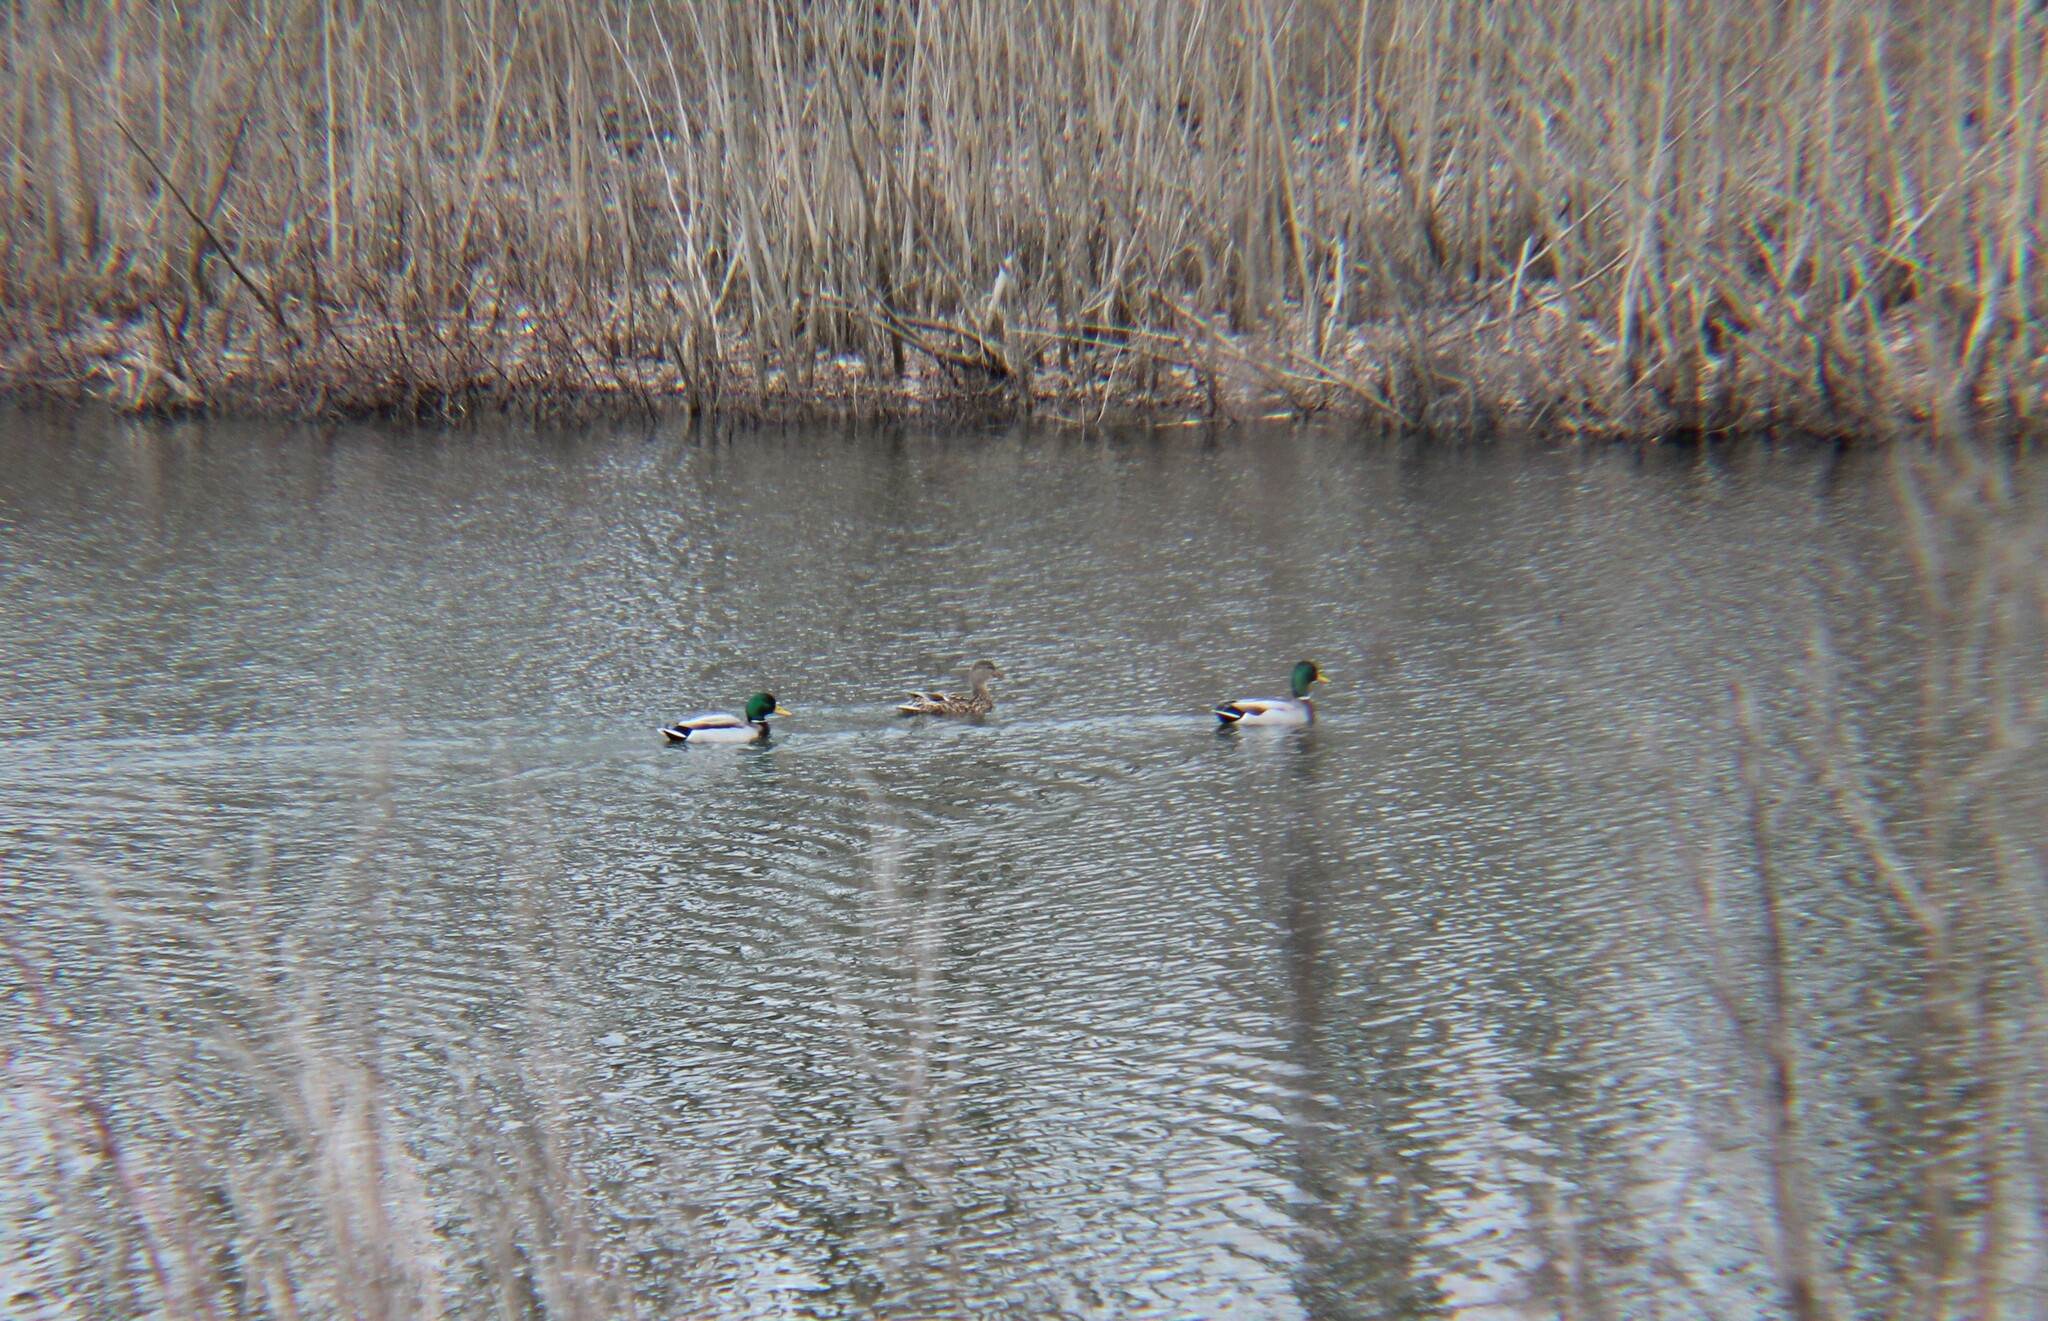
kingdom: Animalia
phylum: Chordata
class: Aves
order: Anseriformes
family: Anatidae
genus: Anas
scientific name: Anas platyrhynchos
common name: Mallard
